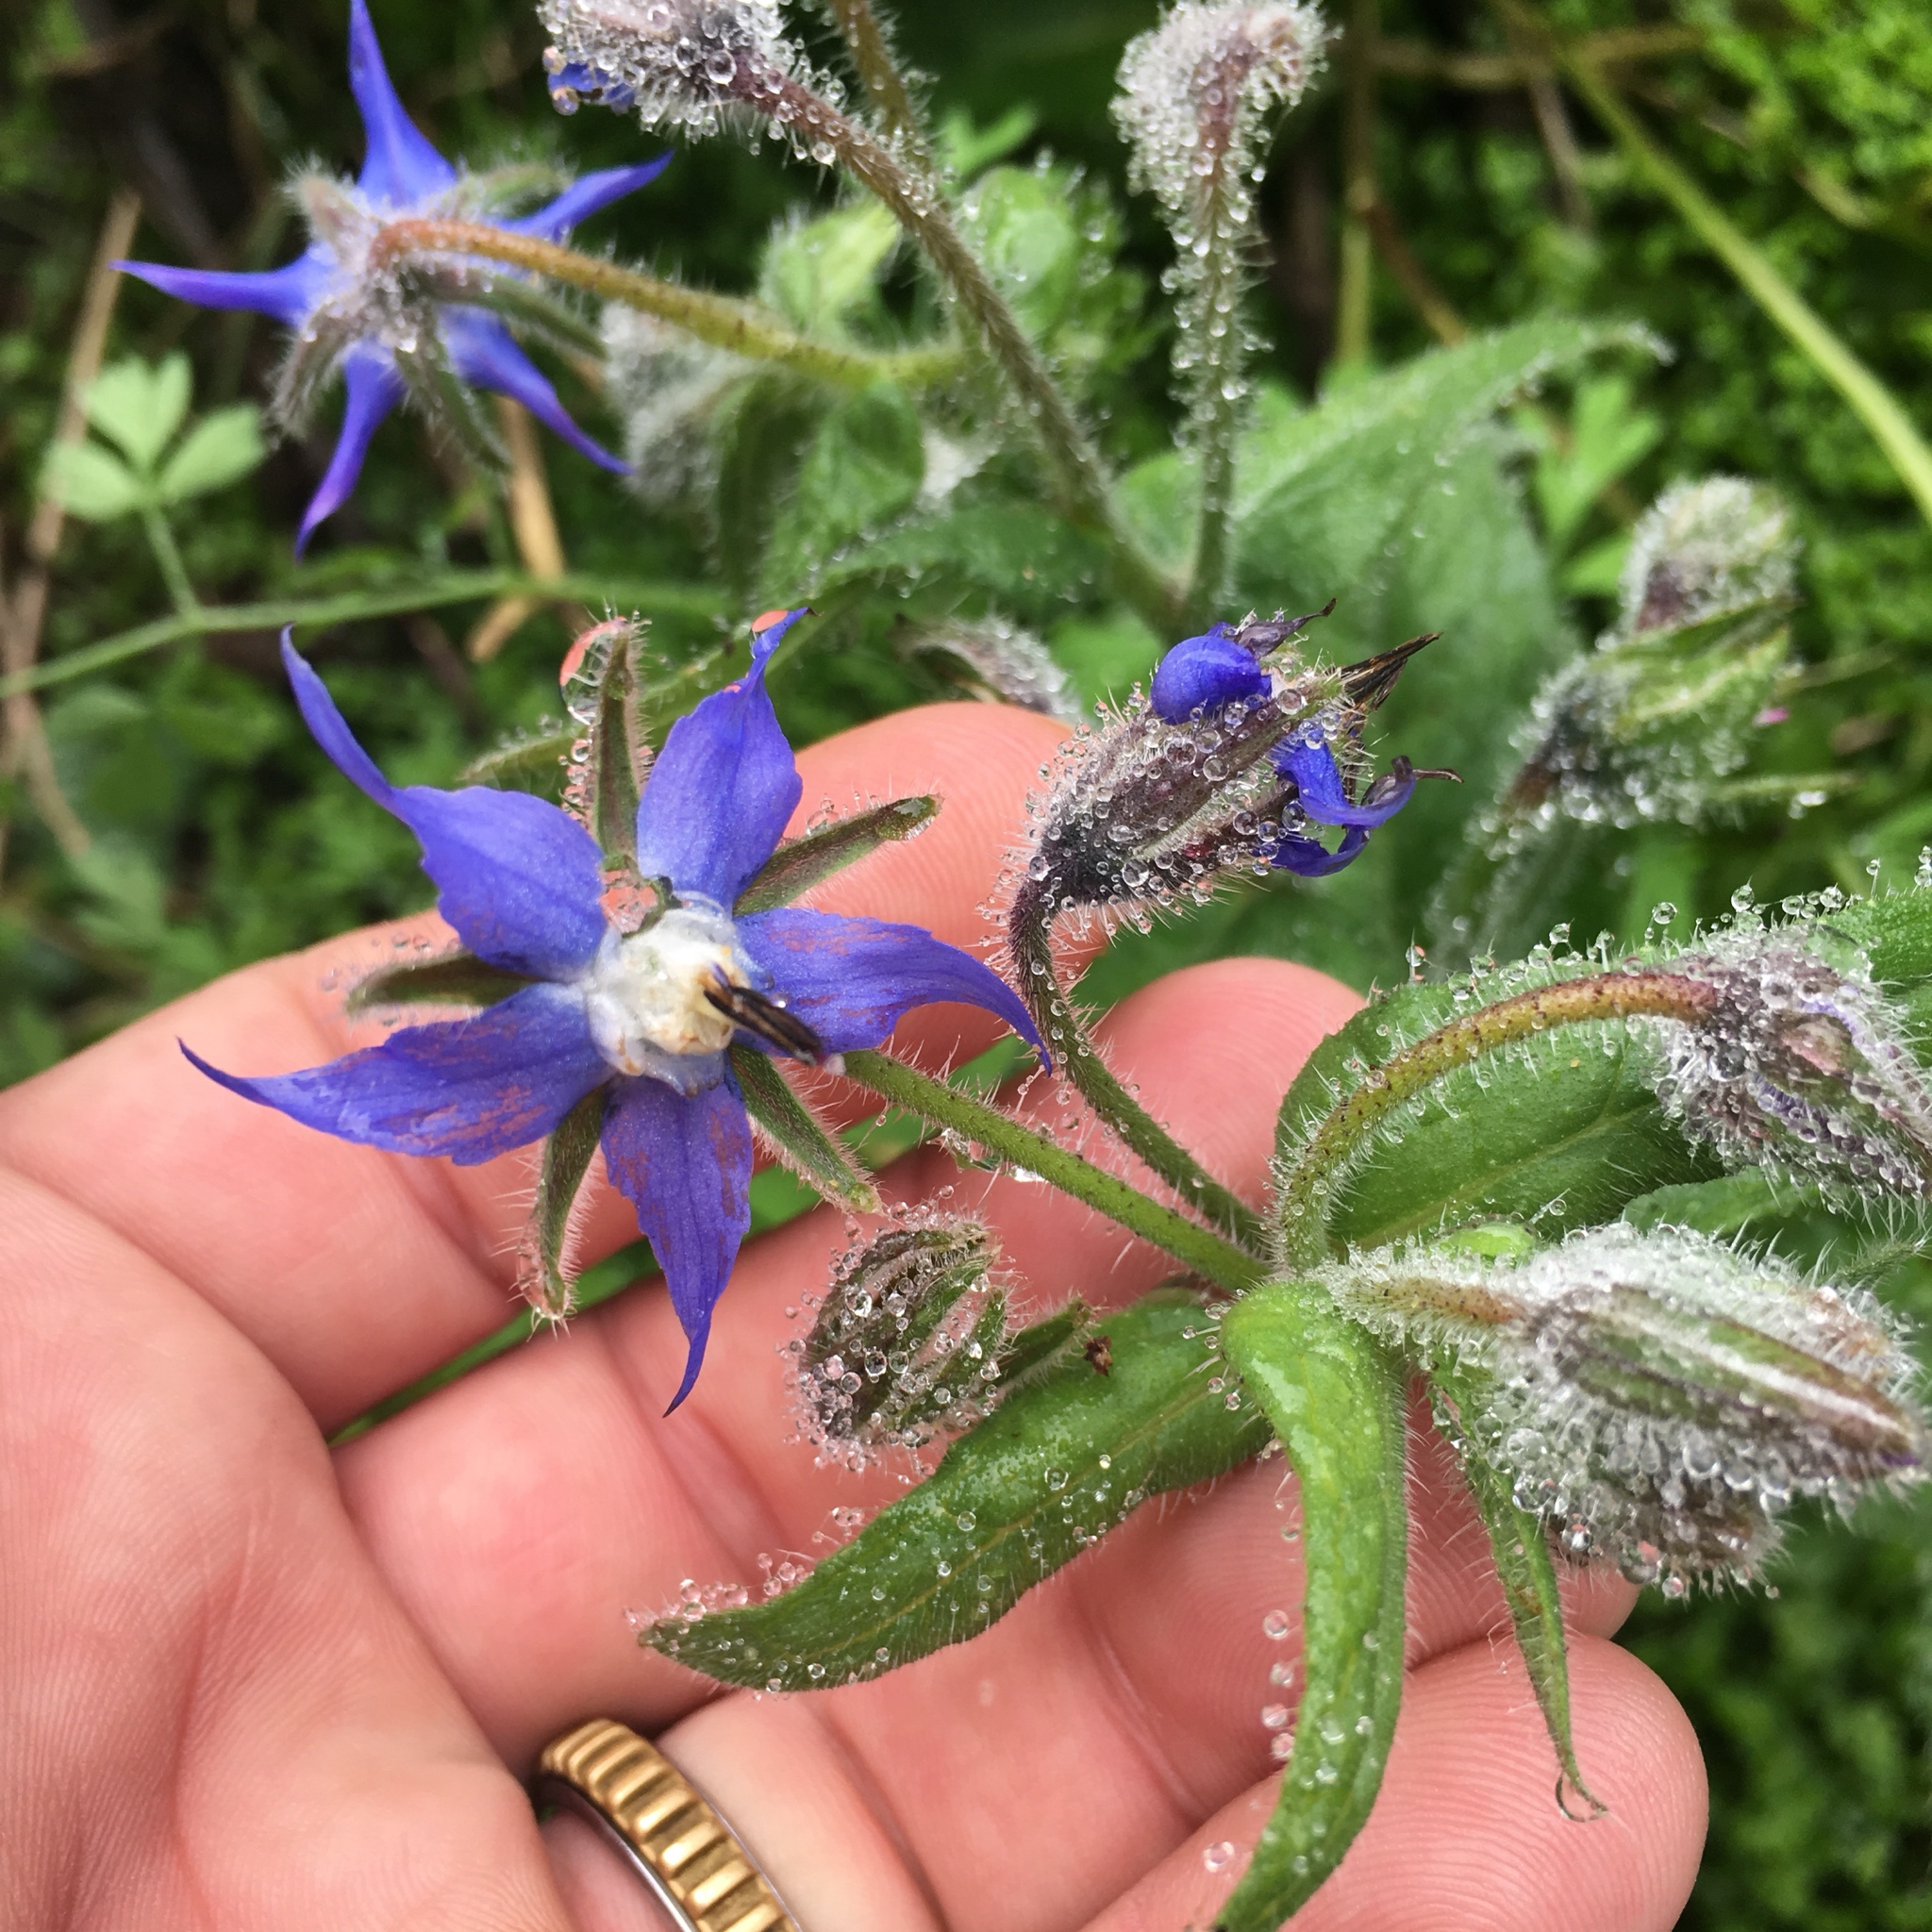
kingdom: Plantae
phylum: Tracheophyta
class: Magnoliopsida
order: Boraginales
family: Boraginaceae
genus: Borago
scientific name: Borago officinalis
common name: Borage
